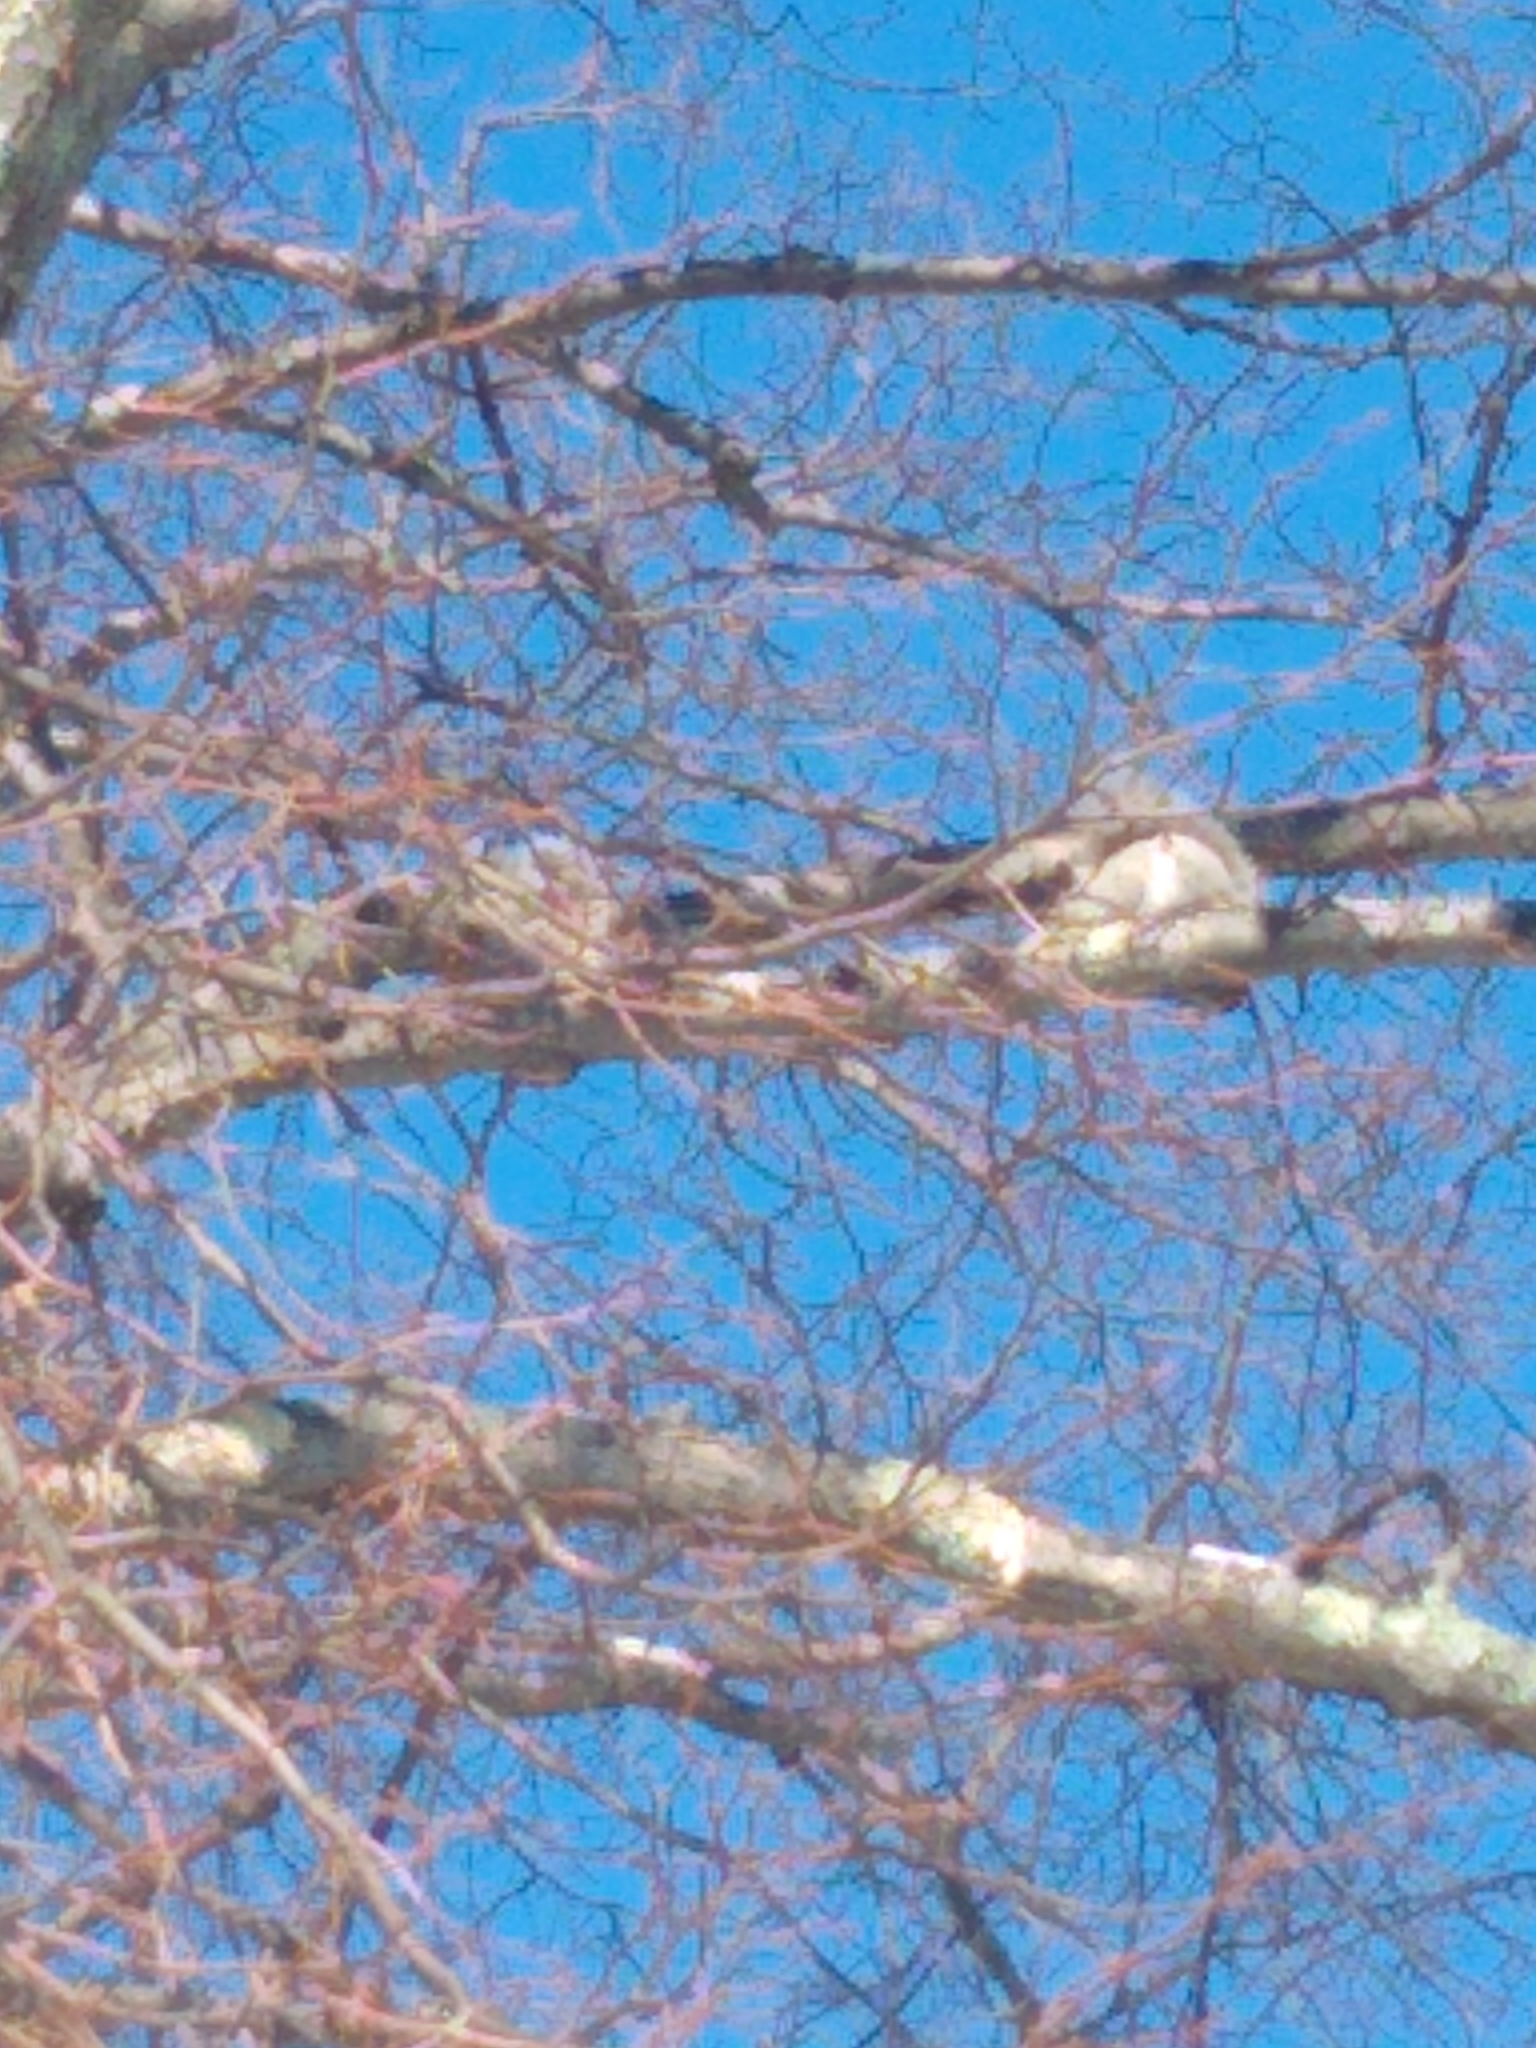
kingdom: Animalia
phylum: Chordata
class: Mammalia
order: Rodentia
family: Sciuridae
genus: Sciurus
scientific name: Sciurus carolinensis
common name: Eastern gray squirrel
